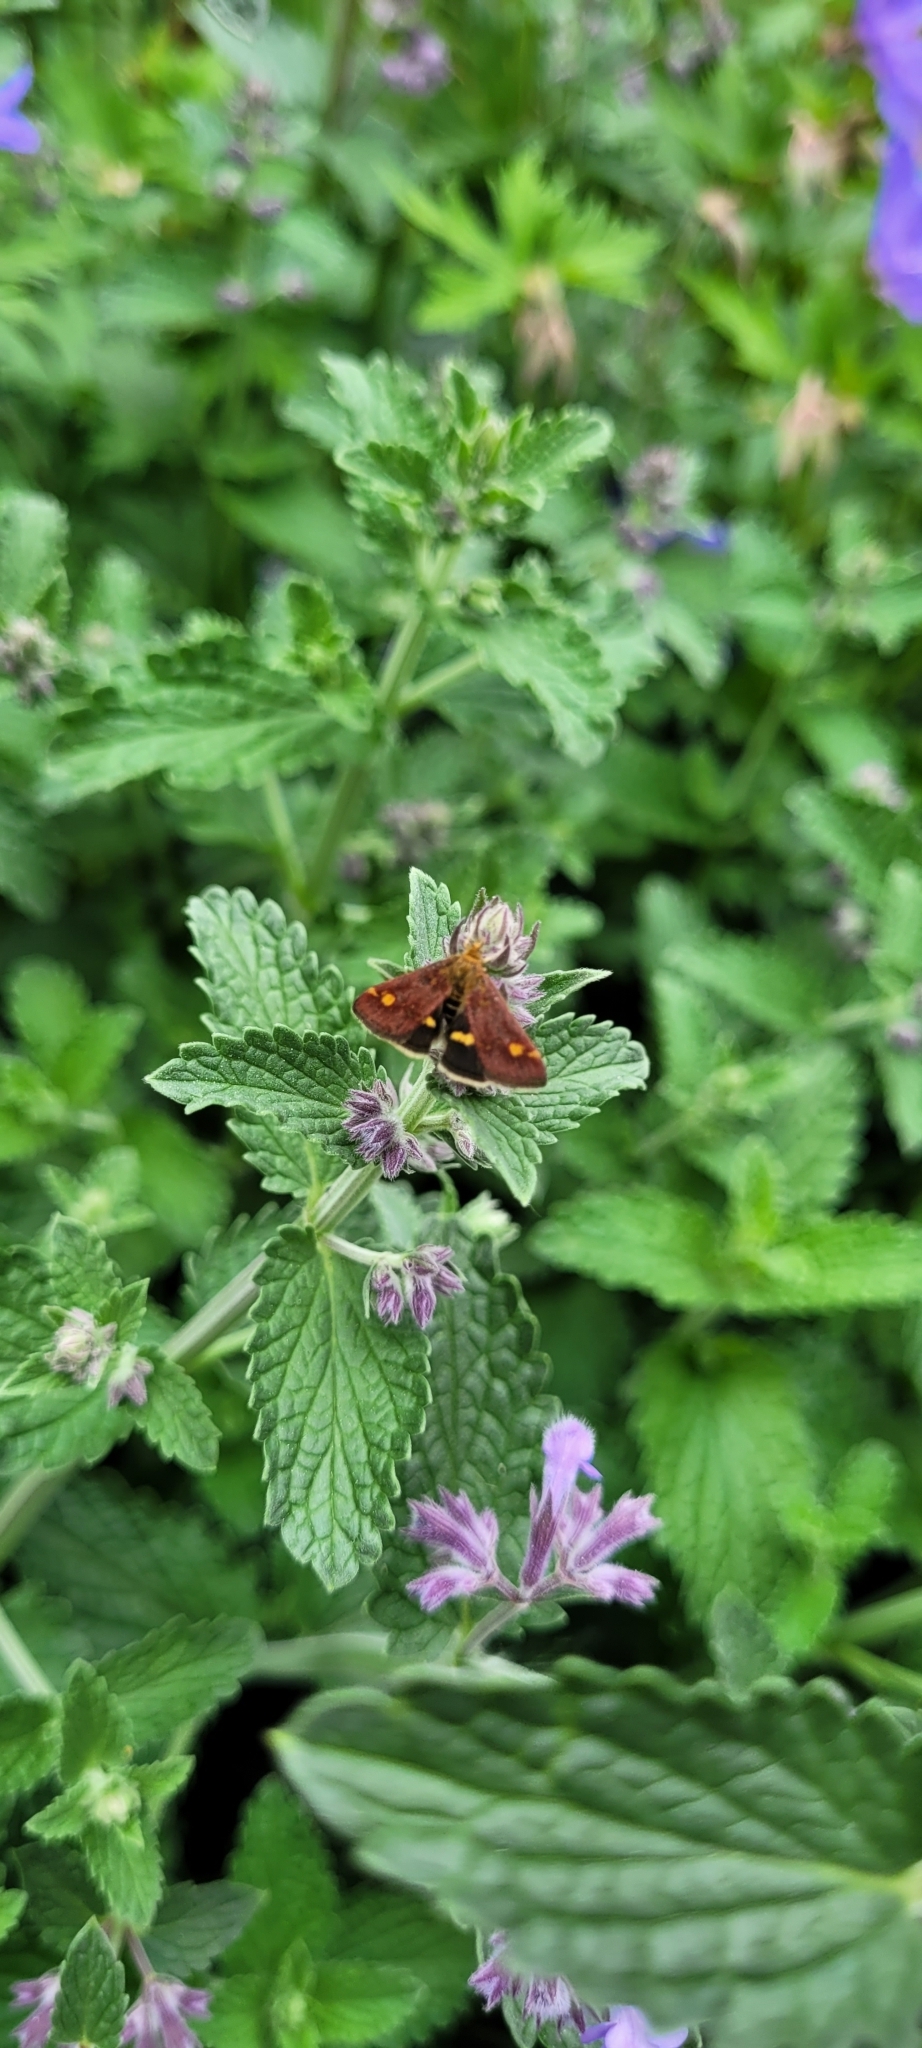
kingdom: Animalia
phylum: Arthropoda
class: Insecta
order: Lepidoptera
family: Crambidae
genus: Pyrausta
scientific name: Pyrausta aurata
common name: Small purple & gold
